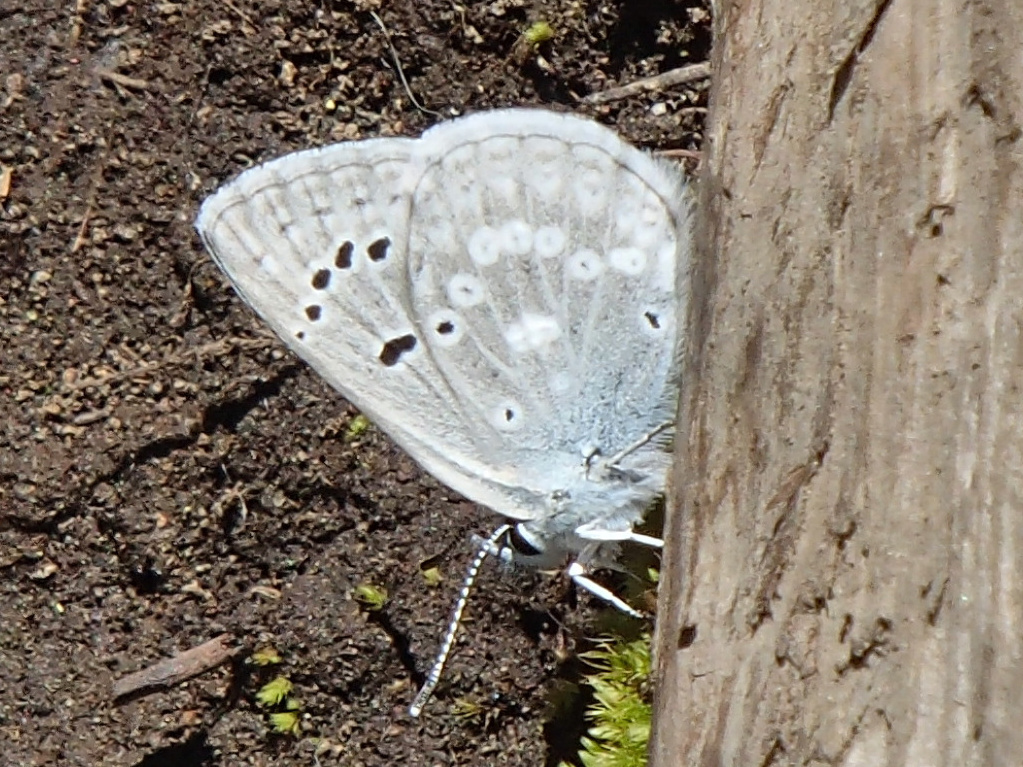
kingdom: Animalia
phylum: Arthropoda
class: Insecta
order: Lepidoptera
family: Lycaenidae
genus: Icaricia
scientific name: Icaricia icarioides
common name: Boisduval's blue
